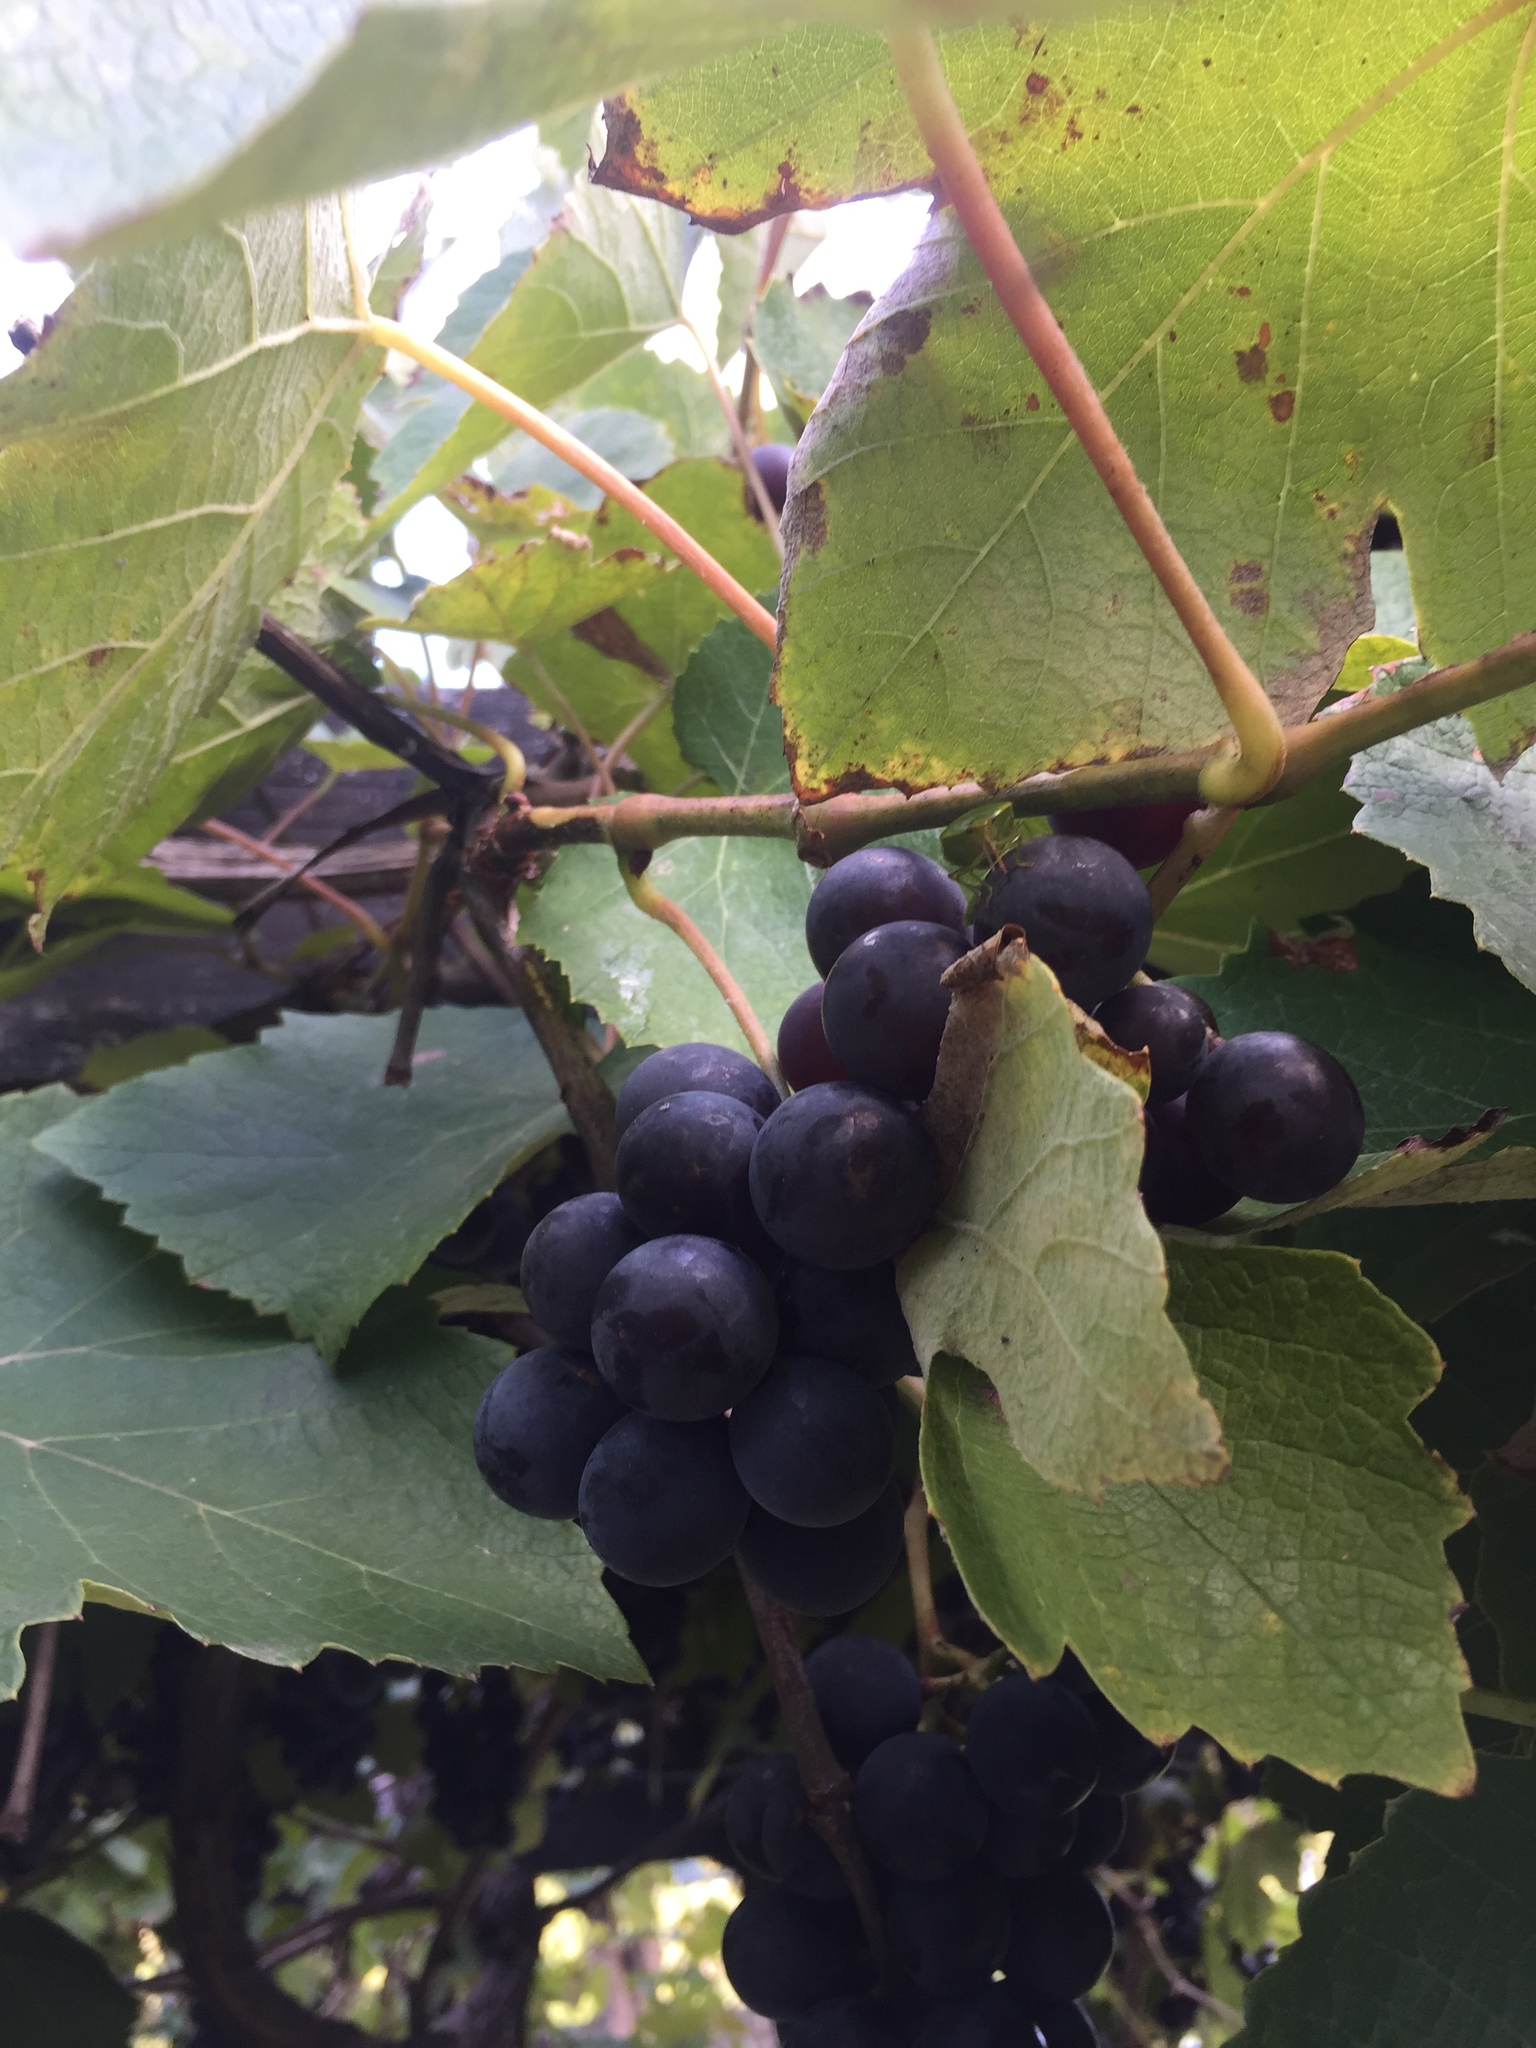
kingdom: Plantae
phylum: Tracheophyta
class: Magnoliopsida
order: Vitales
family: Vitaceae
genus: Vitis
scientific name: Vitis vinifera
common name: Grape-vine
